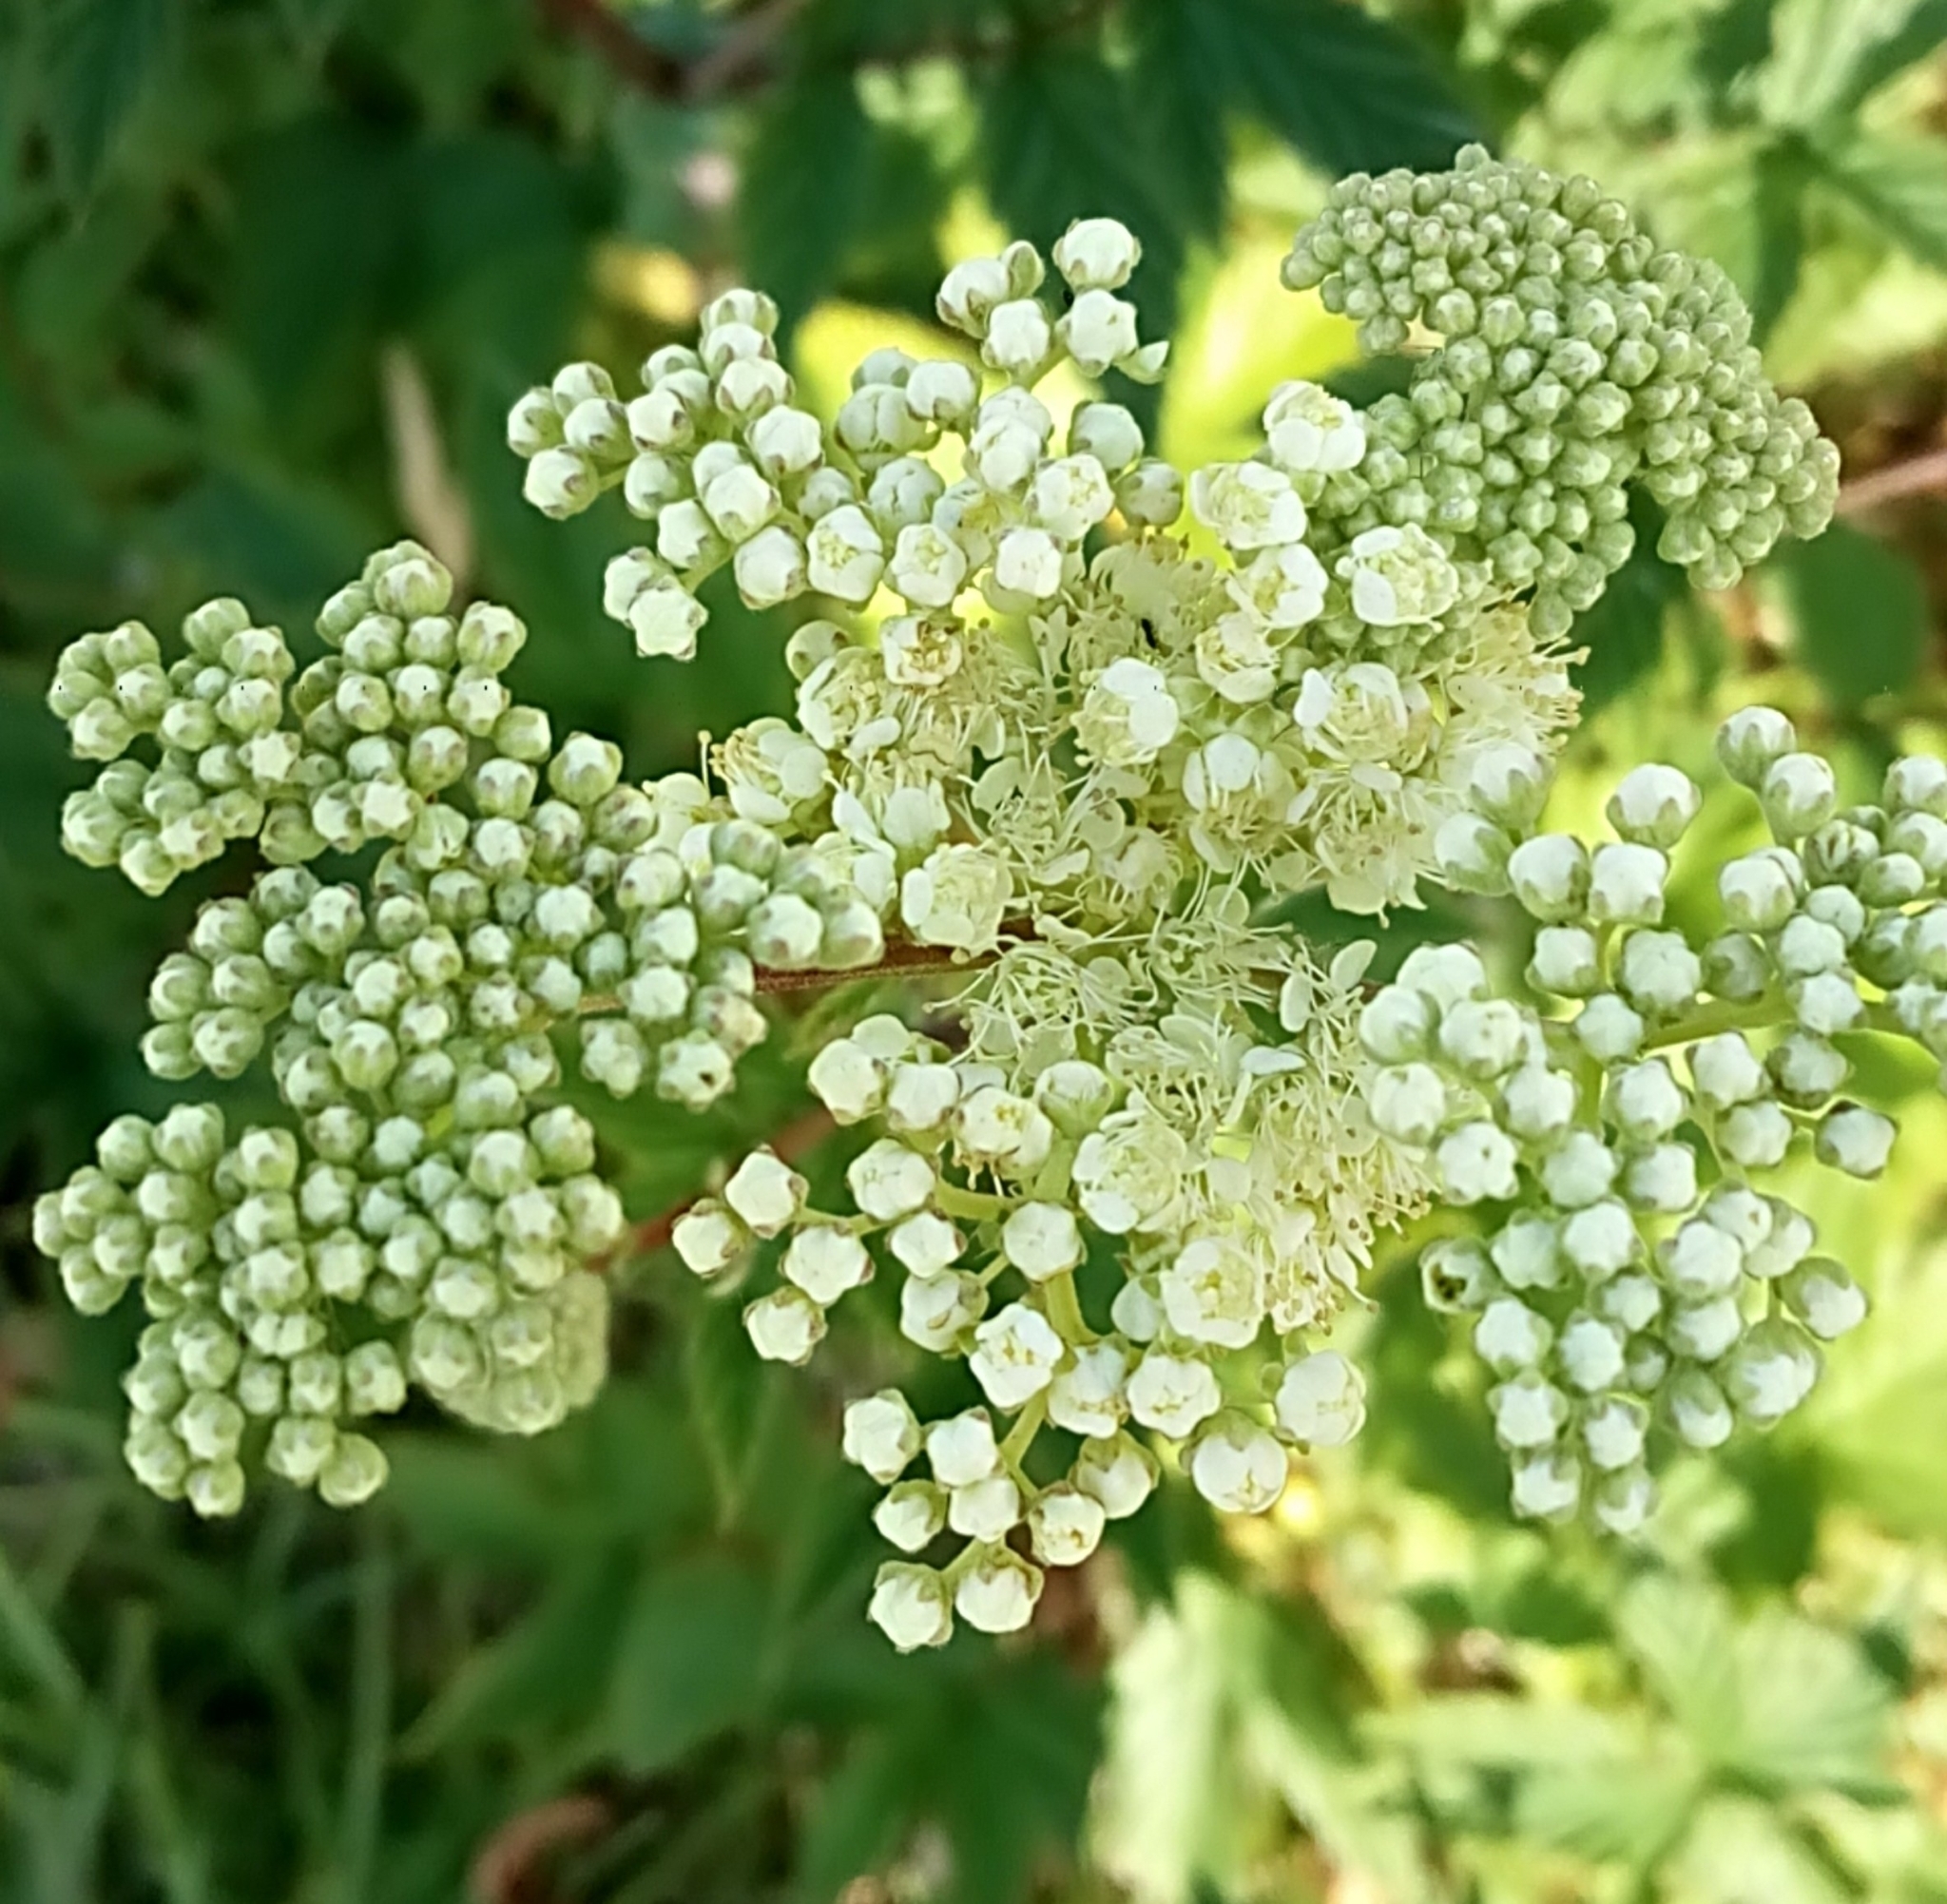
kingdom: Plantae
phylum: Tracheophyta
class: Magnoliopsida
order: Rosales
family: Rosaceae
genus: Filipendula
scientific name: Filipendula ulmaria
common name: Meadowsweet
